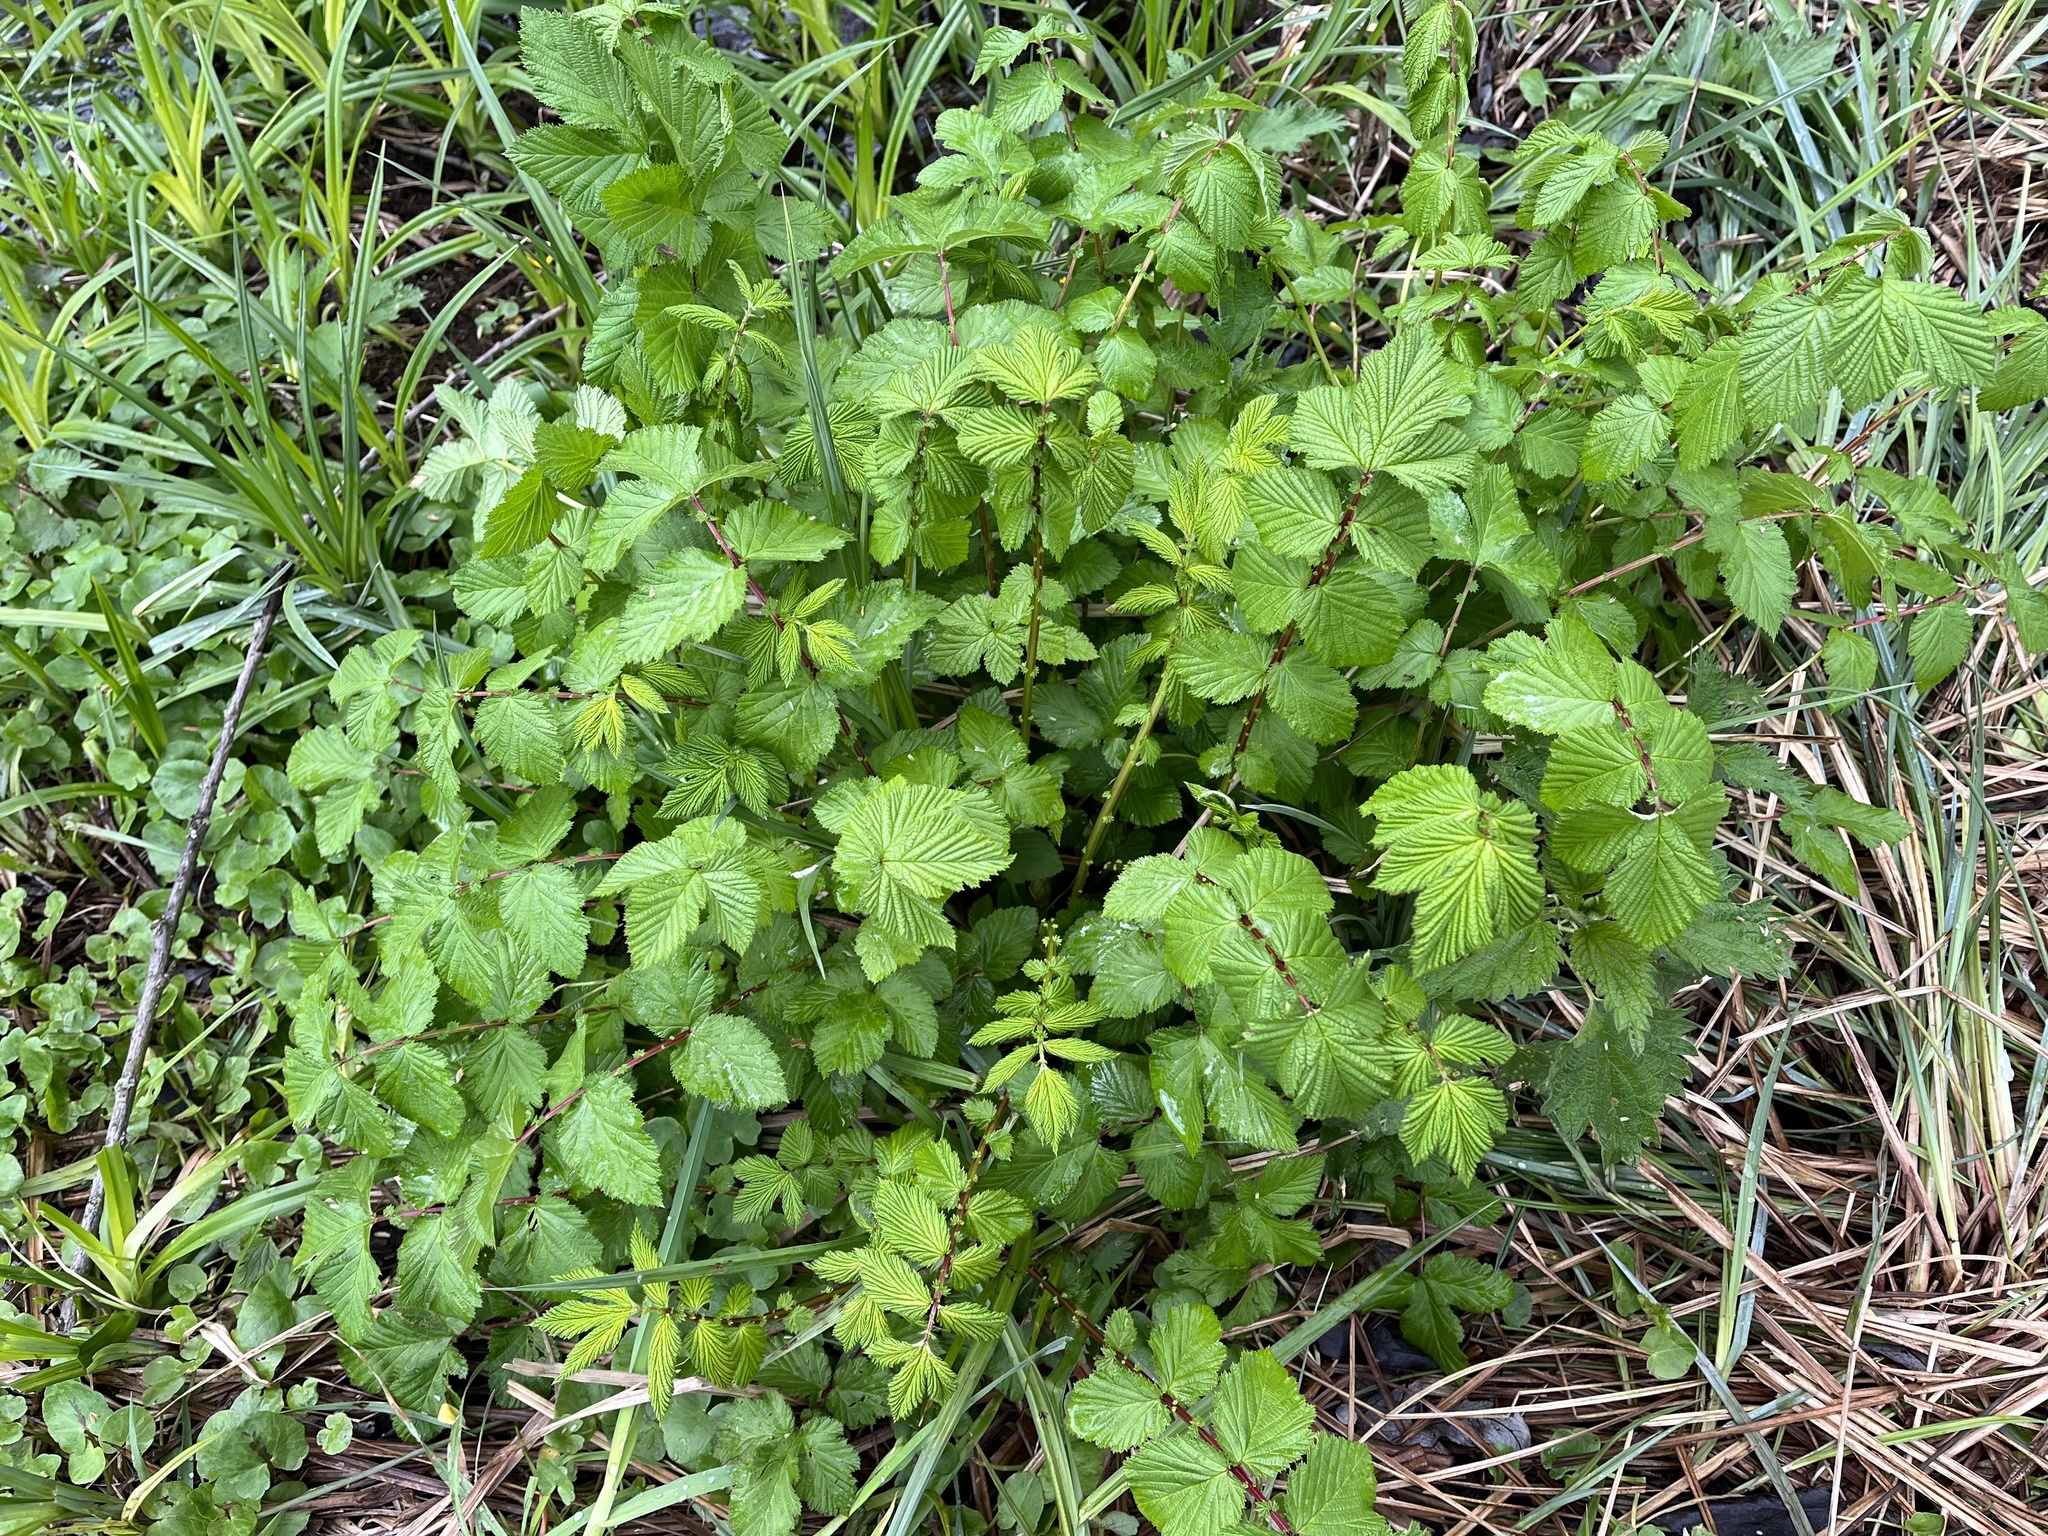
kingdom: Plantae
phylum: Tracheophyta
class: Magnoliopsida
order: Rosales
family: Rosaceae
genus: Filipendula
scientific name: Filipendula ulmaria
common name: Meadowsweet
